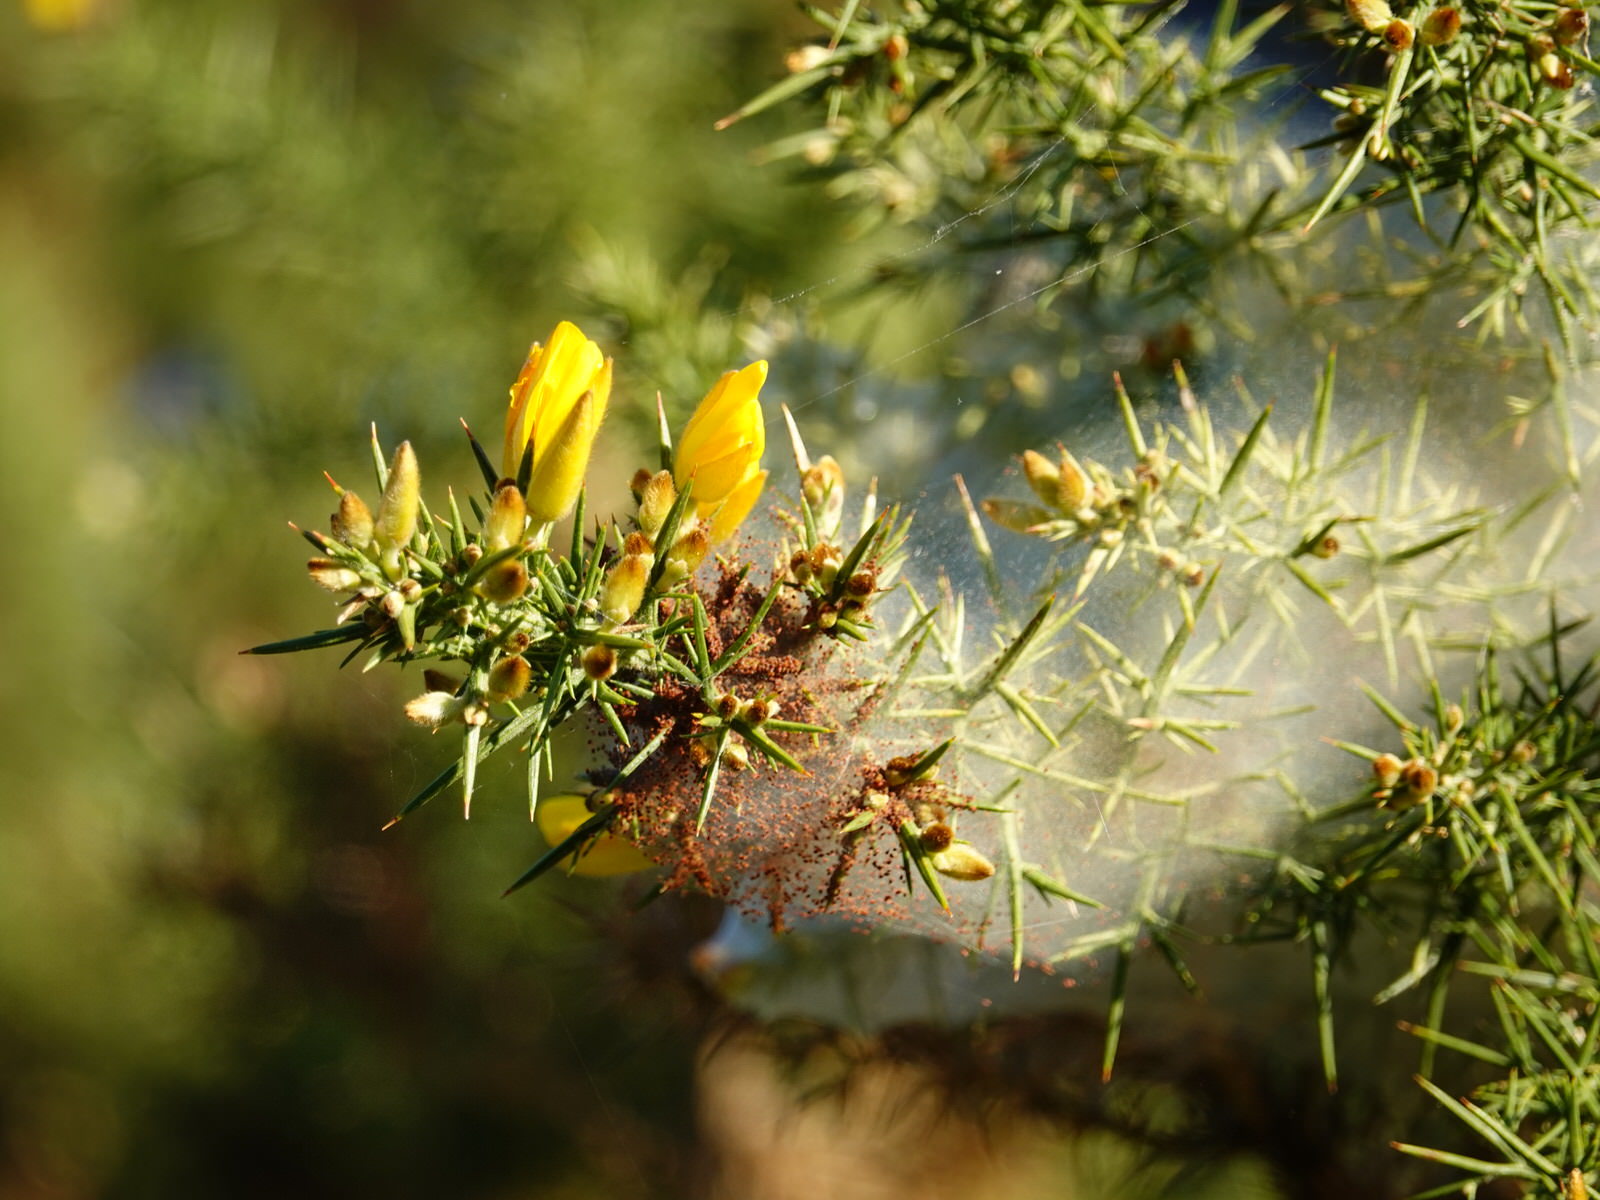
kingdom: Animalia
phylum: Arthropoda
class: Arachnida
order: Trombidiformes
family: Tetranychidae
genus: Tetranychus
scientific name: Tetranychus lintearius
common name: Gorse spider mite
